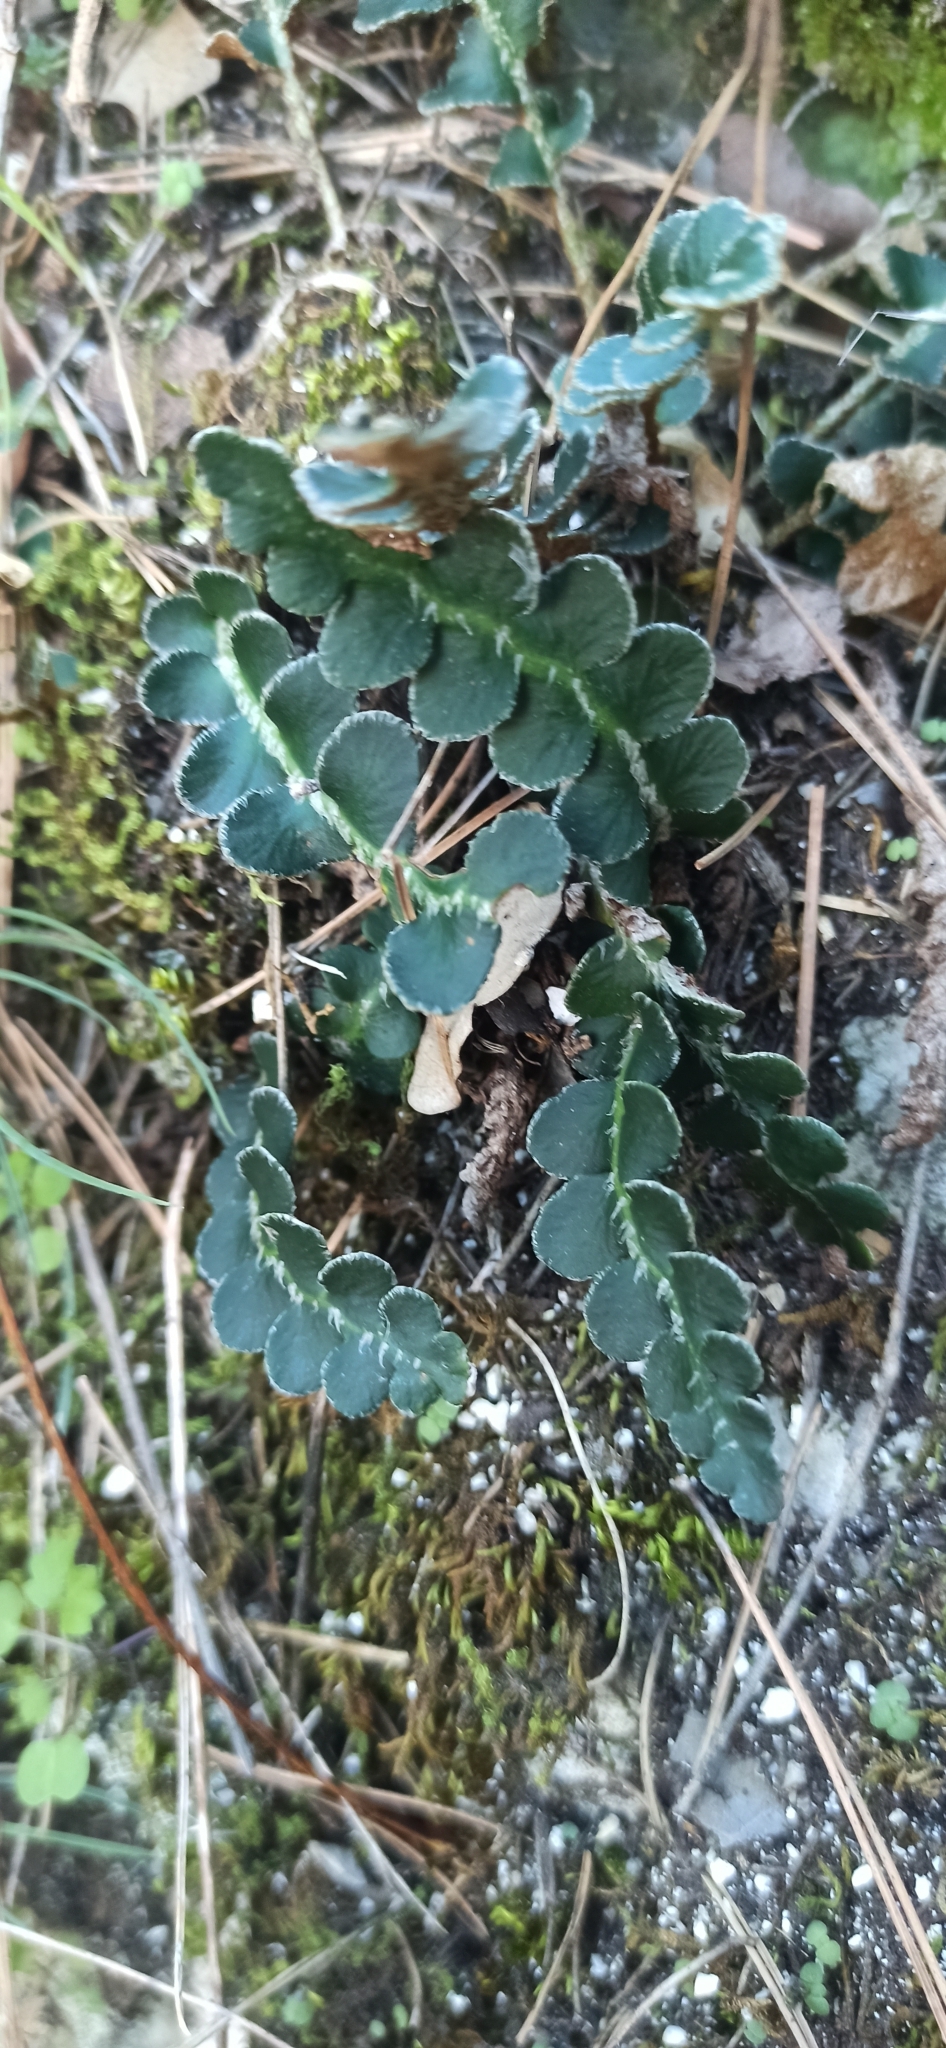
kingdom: Plantae
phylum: Tracheophyta
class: Polypodiopsida
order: Polypodiales
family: Aspleniaceae
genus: Asplenium
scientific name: Asplenium ceterach
